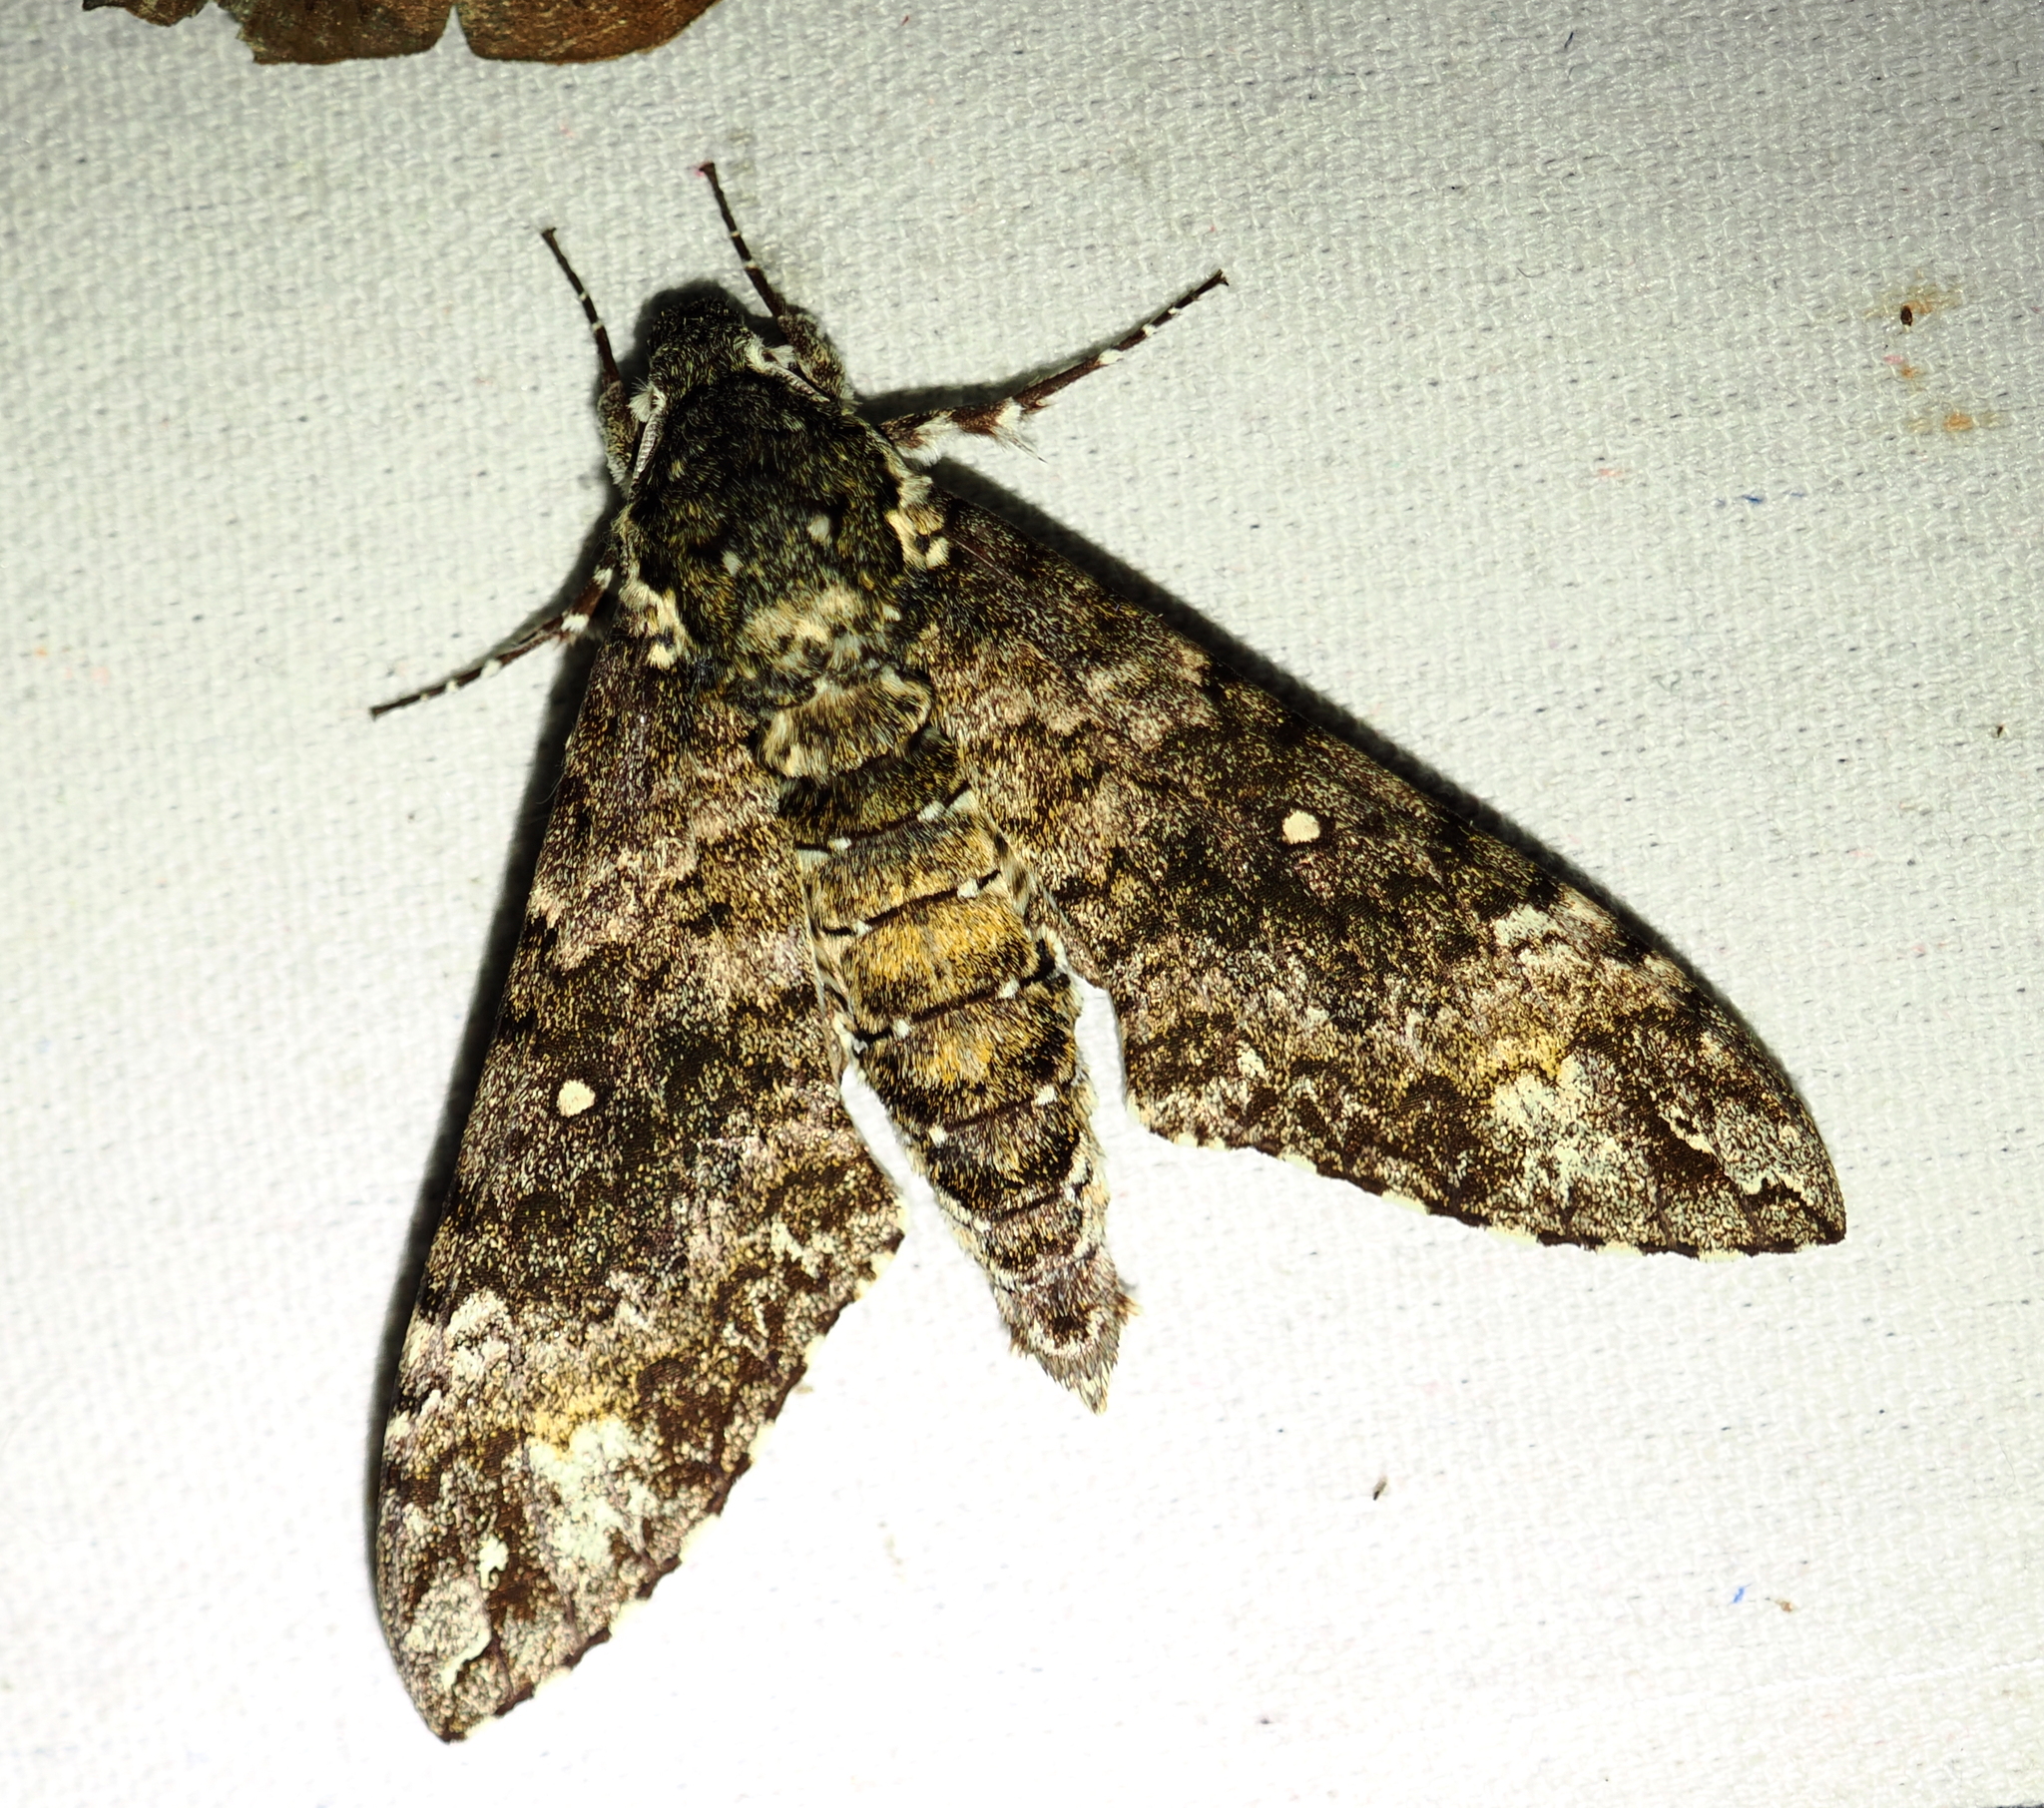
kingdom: Animalia
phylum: Arthropoda
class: Insecta
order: Lepidoptera
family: Sphingidae
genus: Manduca
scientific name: Manduca corallina
